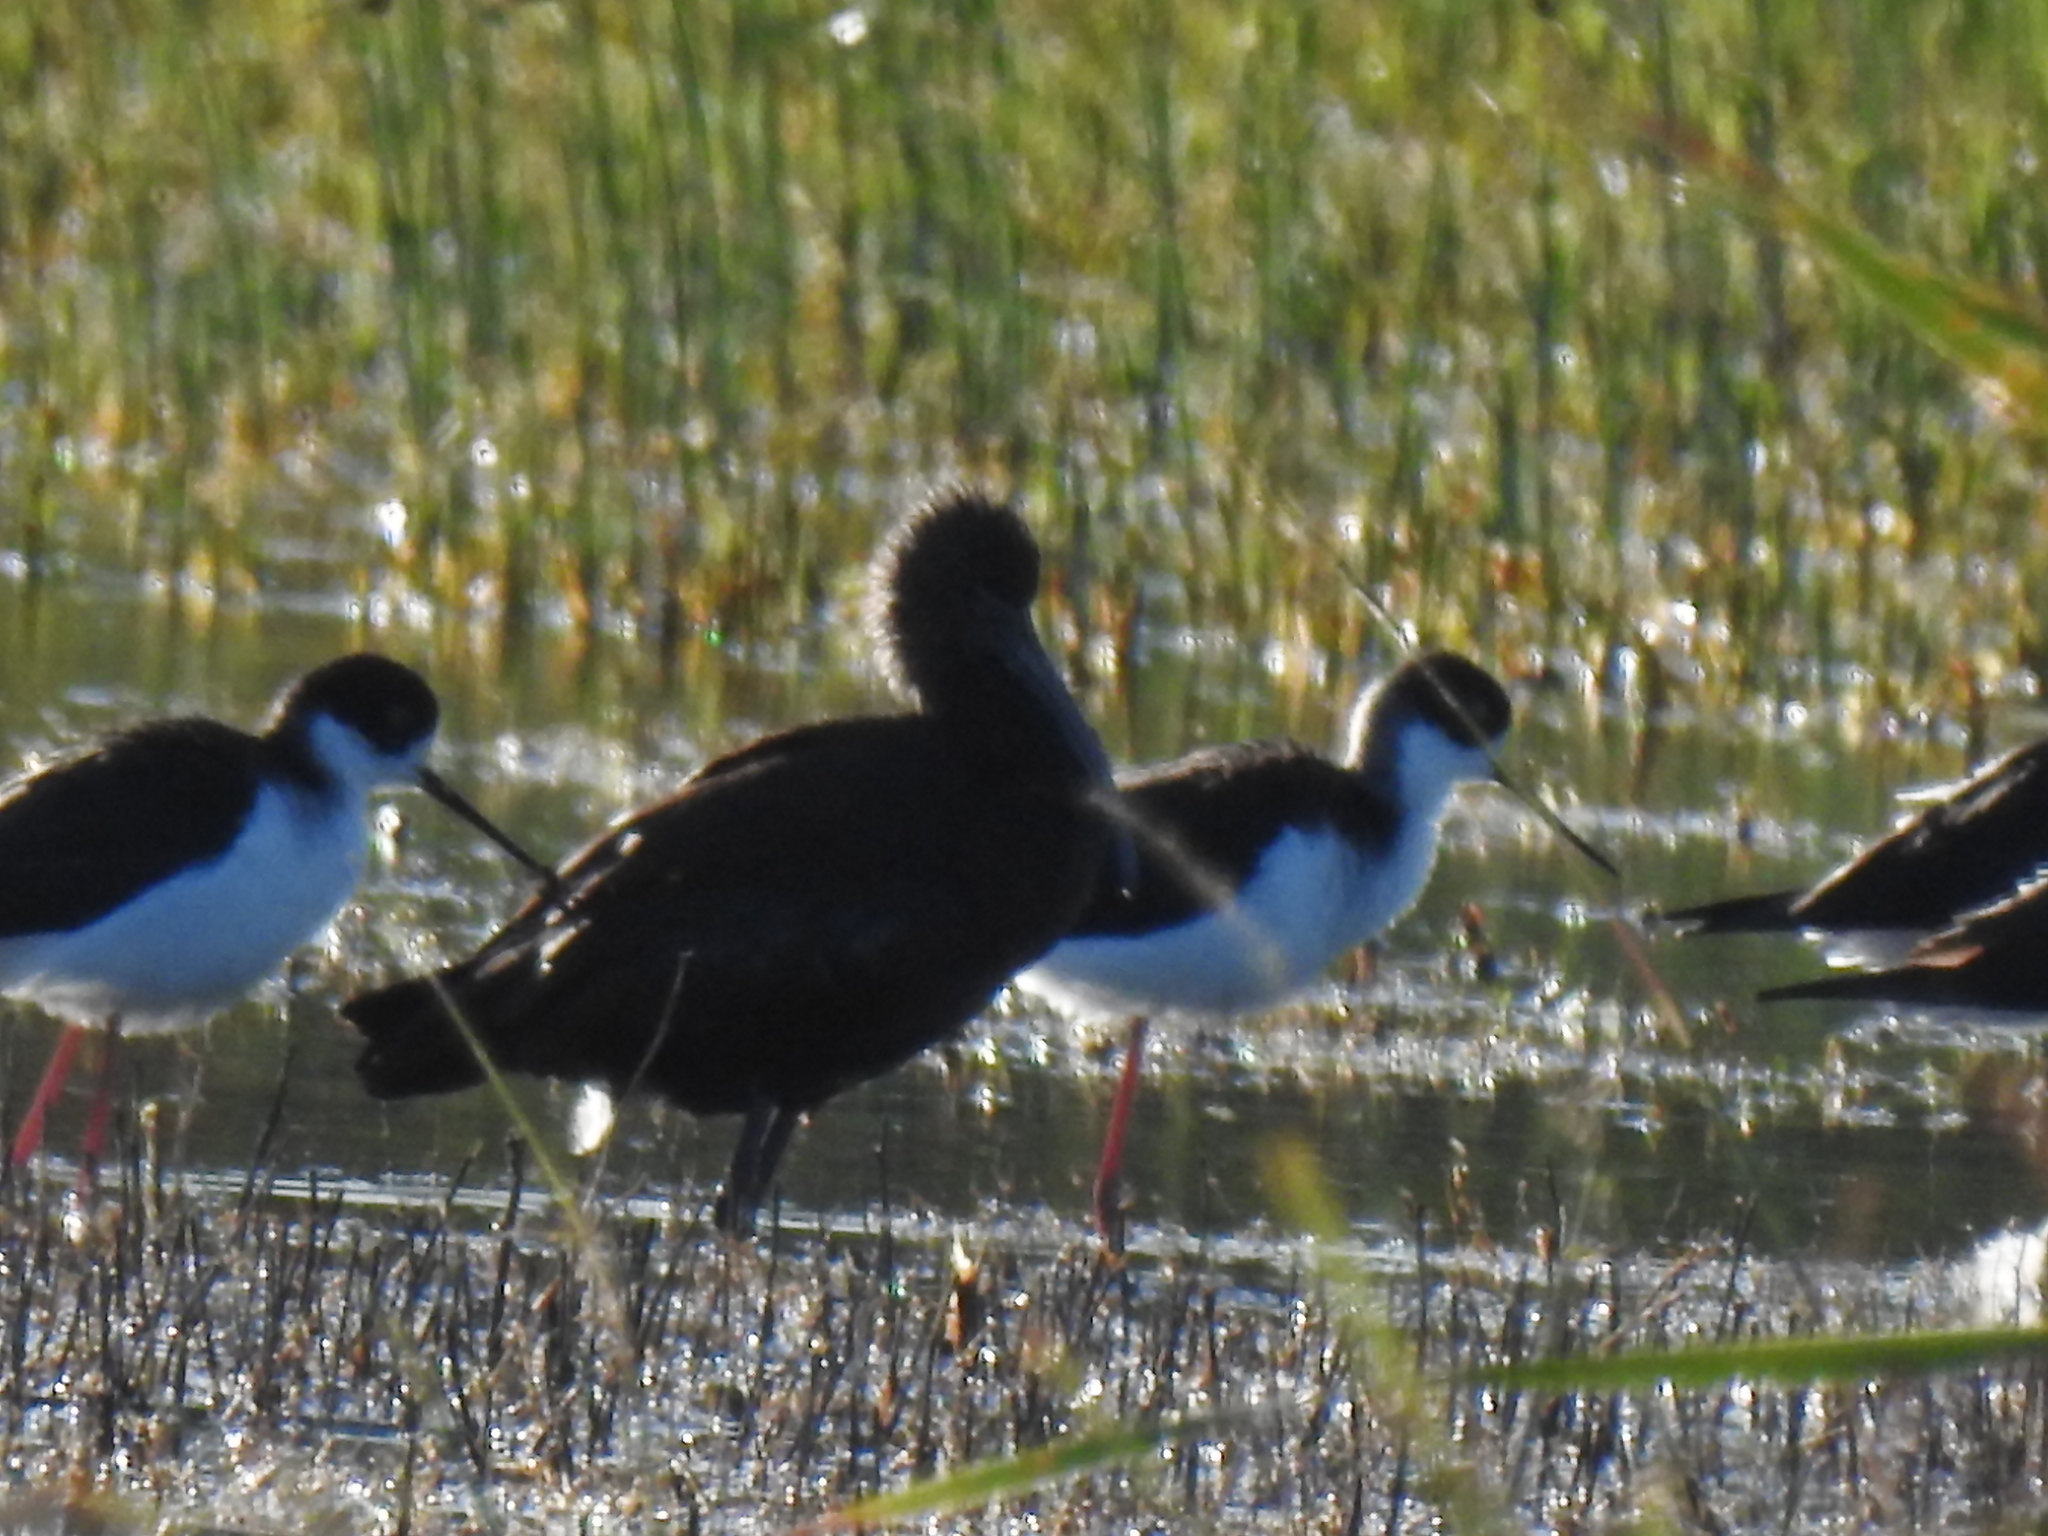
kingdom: Animalia
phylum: Chordata
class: Aves
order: Charadriiformes
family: Recurvirostridae
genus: Himantopus
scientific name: Himantopus mexicanus
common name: Black-necked stilt
